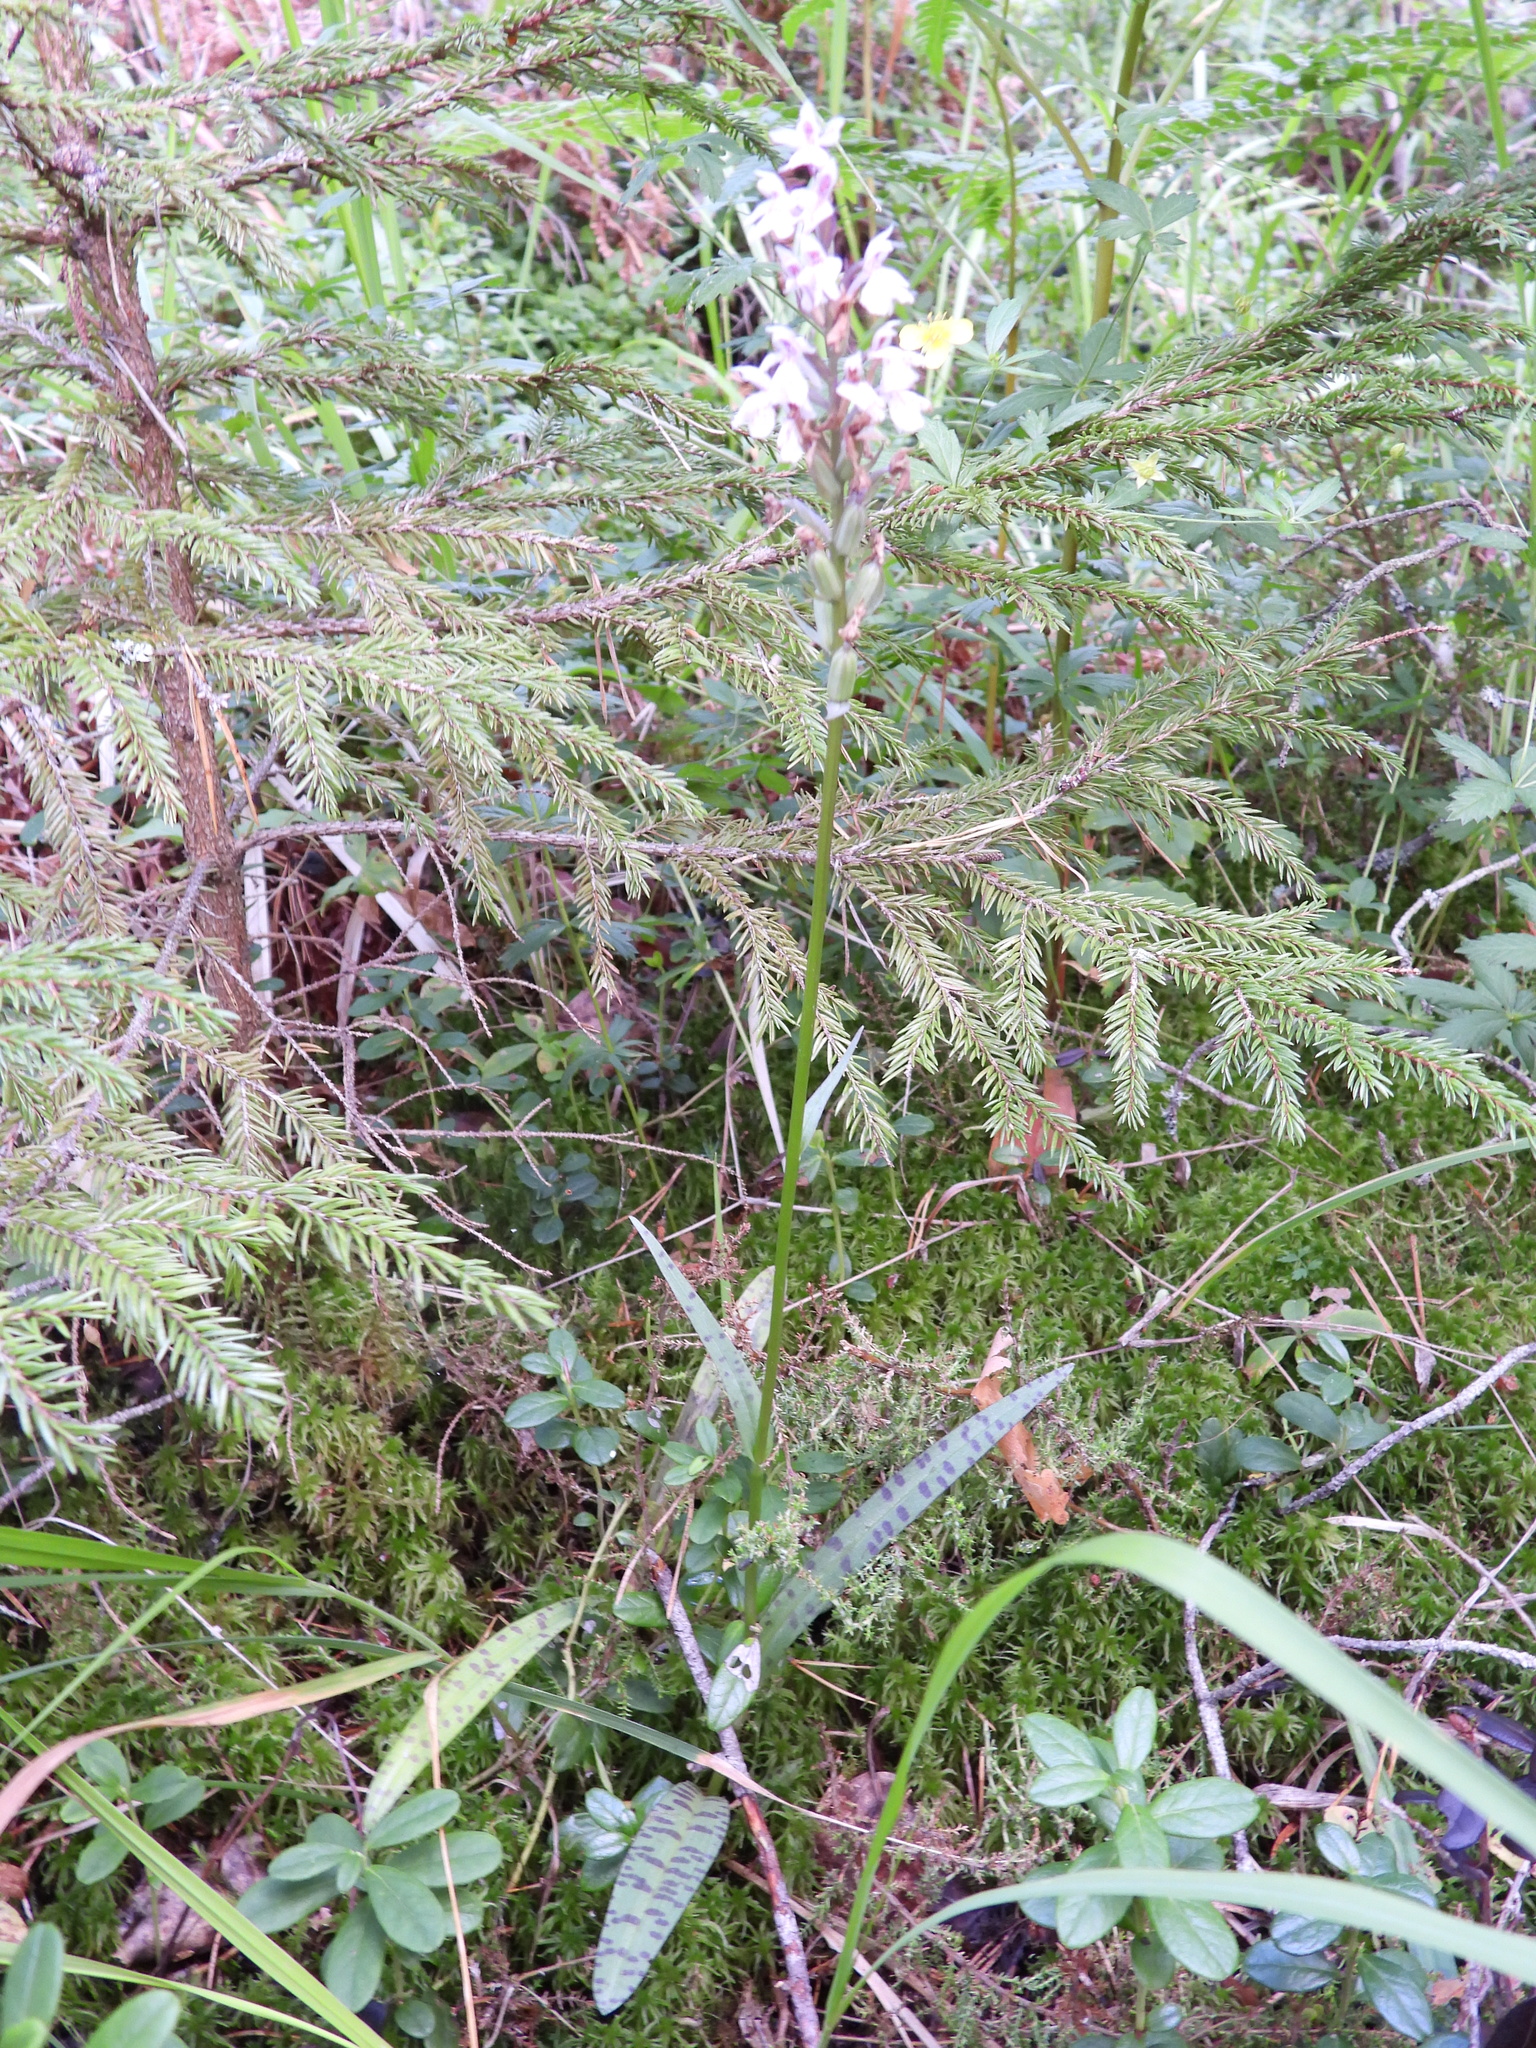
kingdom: Plantae
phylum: Tracheophyta
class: Liliopsida
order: Asparagales
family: Orchidaceae
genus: Dactylorhiza
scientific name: Dactylorhiza maculata
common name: Heath spotted-orchid
